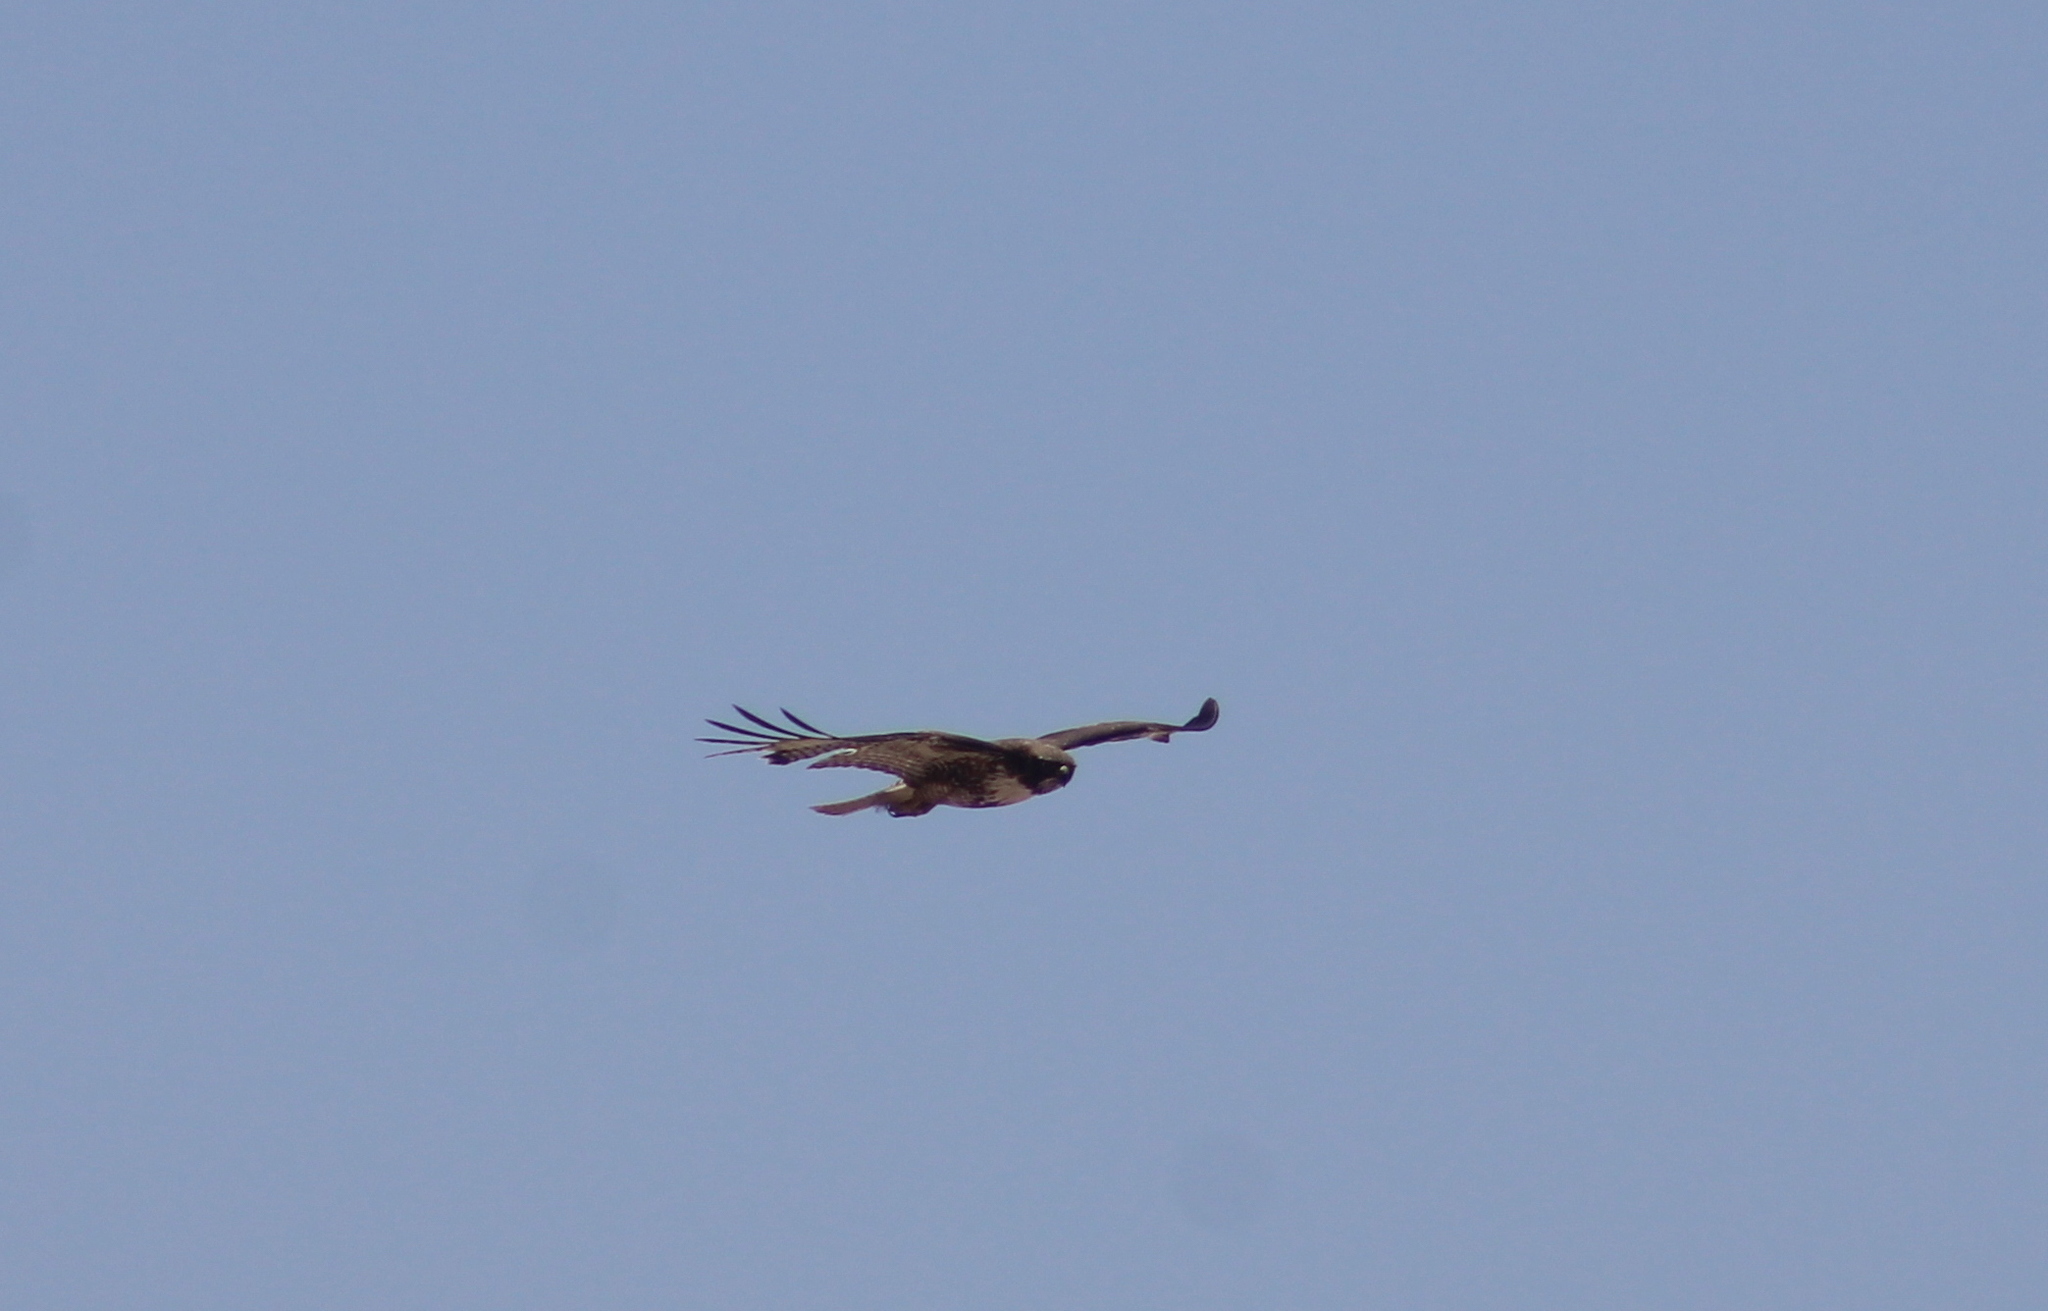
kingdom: Animalia
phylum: Chordata
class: Aves
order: Accipitriformes
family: Accipitridae
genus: Buteo
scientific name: Buteo jamaicensis
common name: Red-tailed hawk
